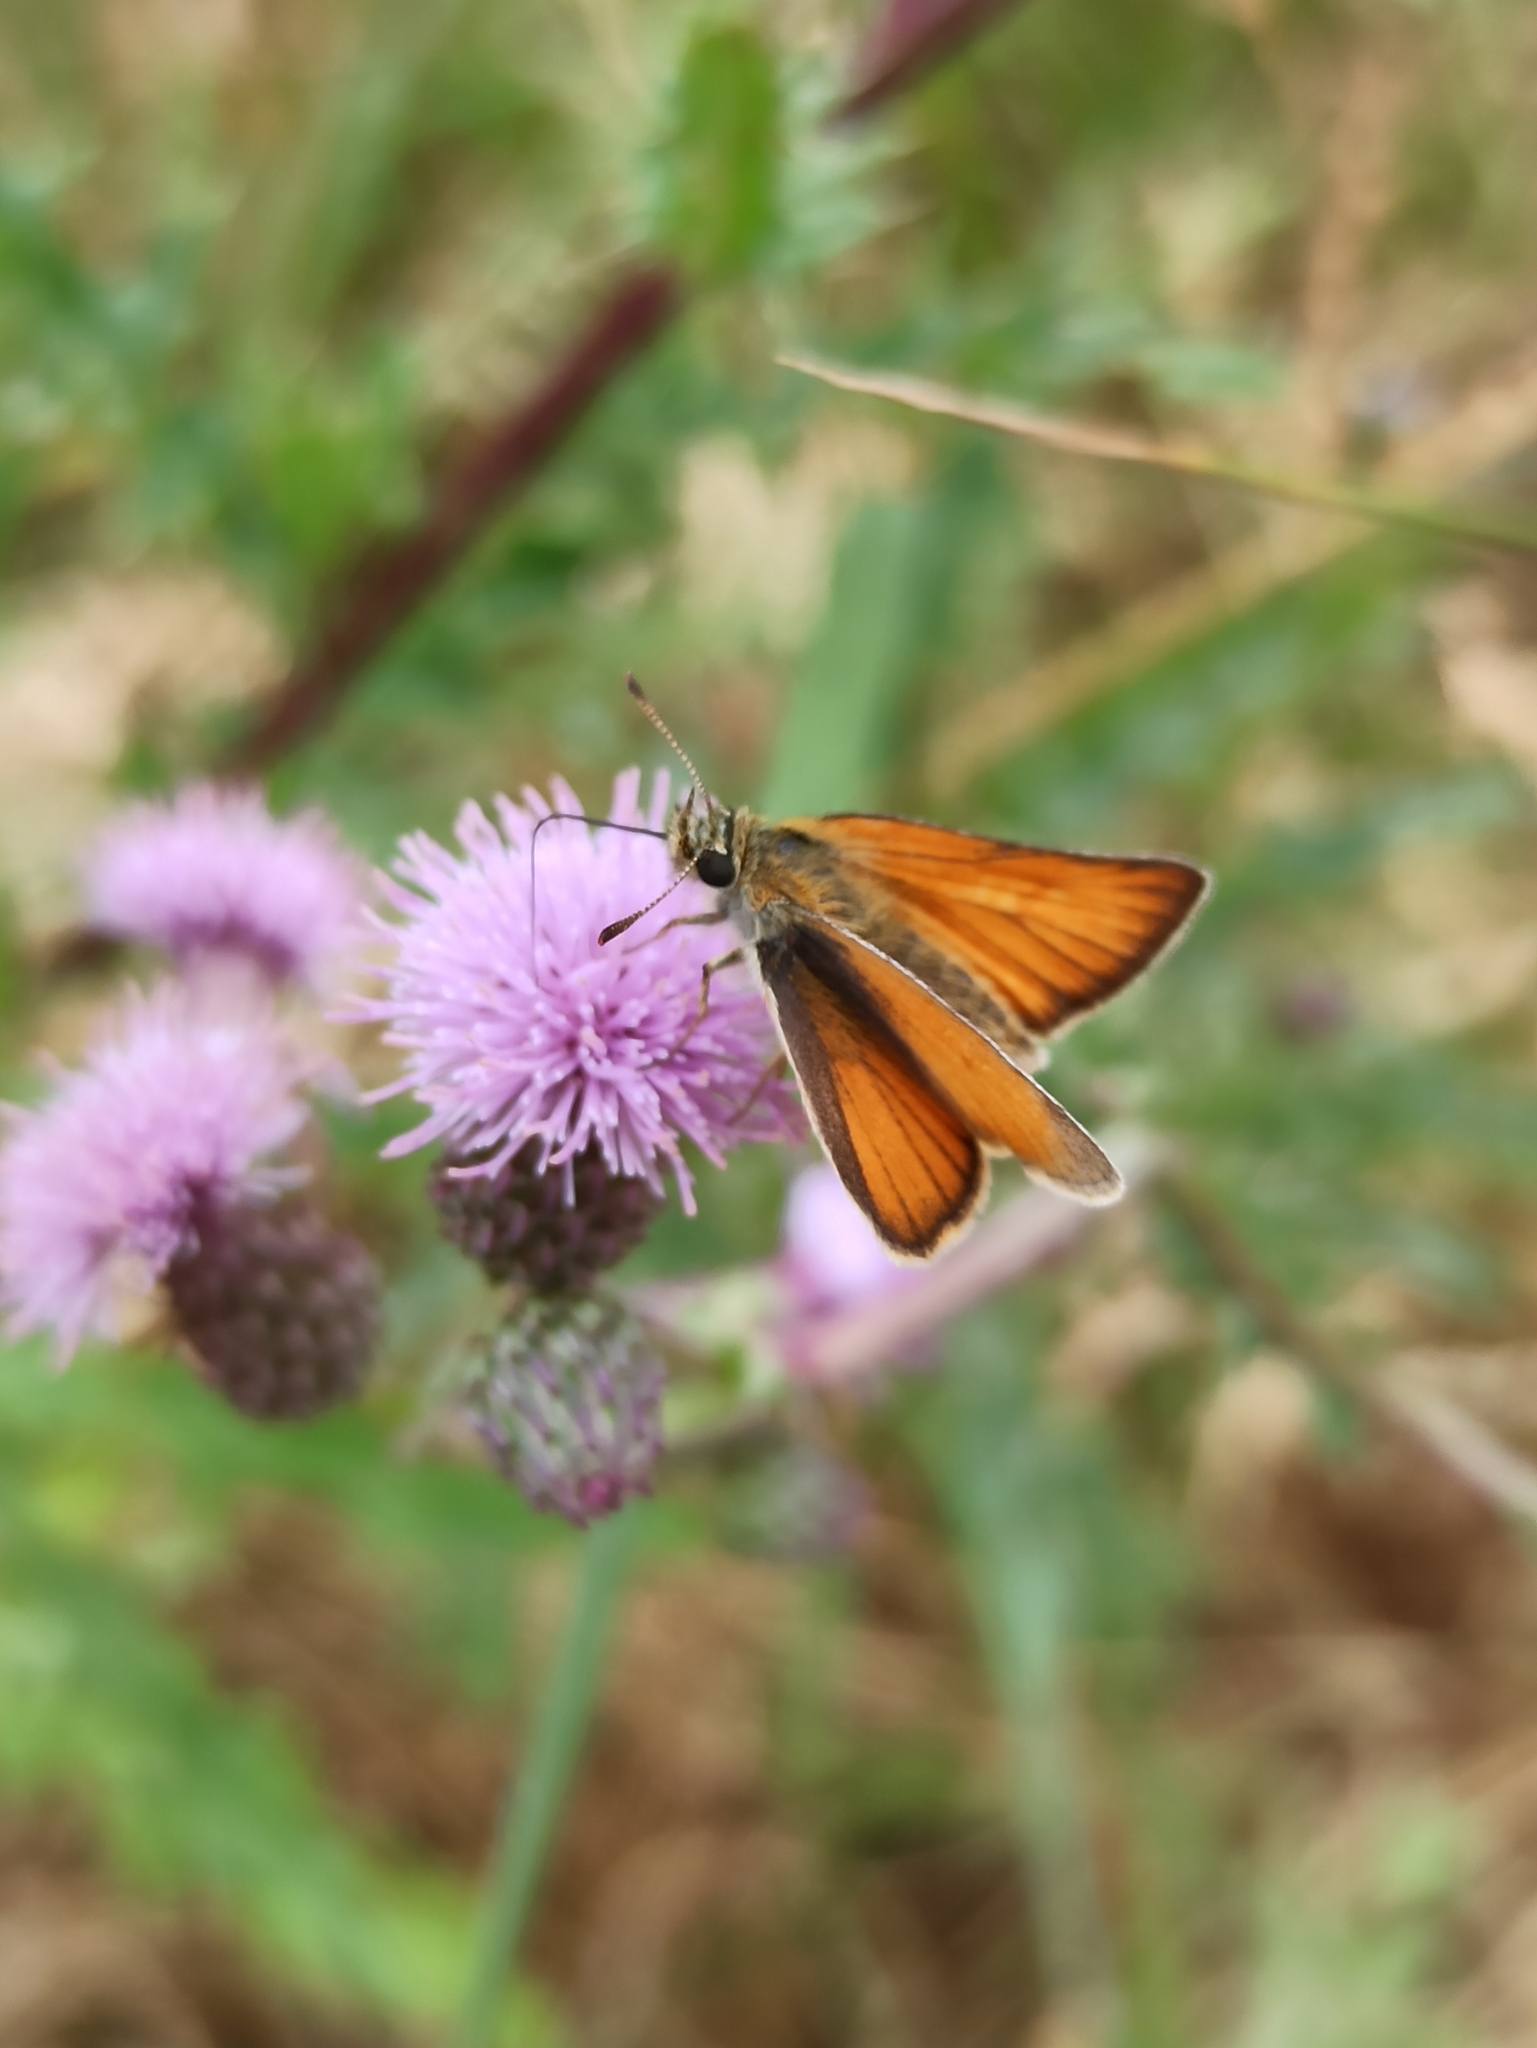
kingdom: Animalia
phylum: Arthropoda
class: Insecta
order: Lepidoptera
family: Hesperiidae
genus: Thymelicus
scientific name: Thymelicus sylvestris
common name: Small skipper
